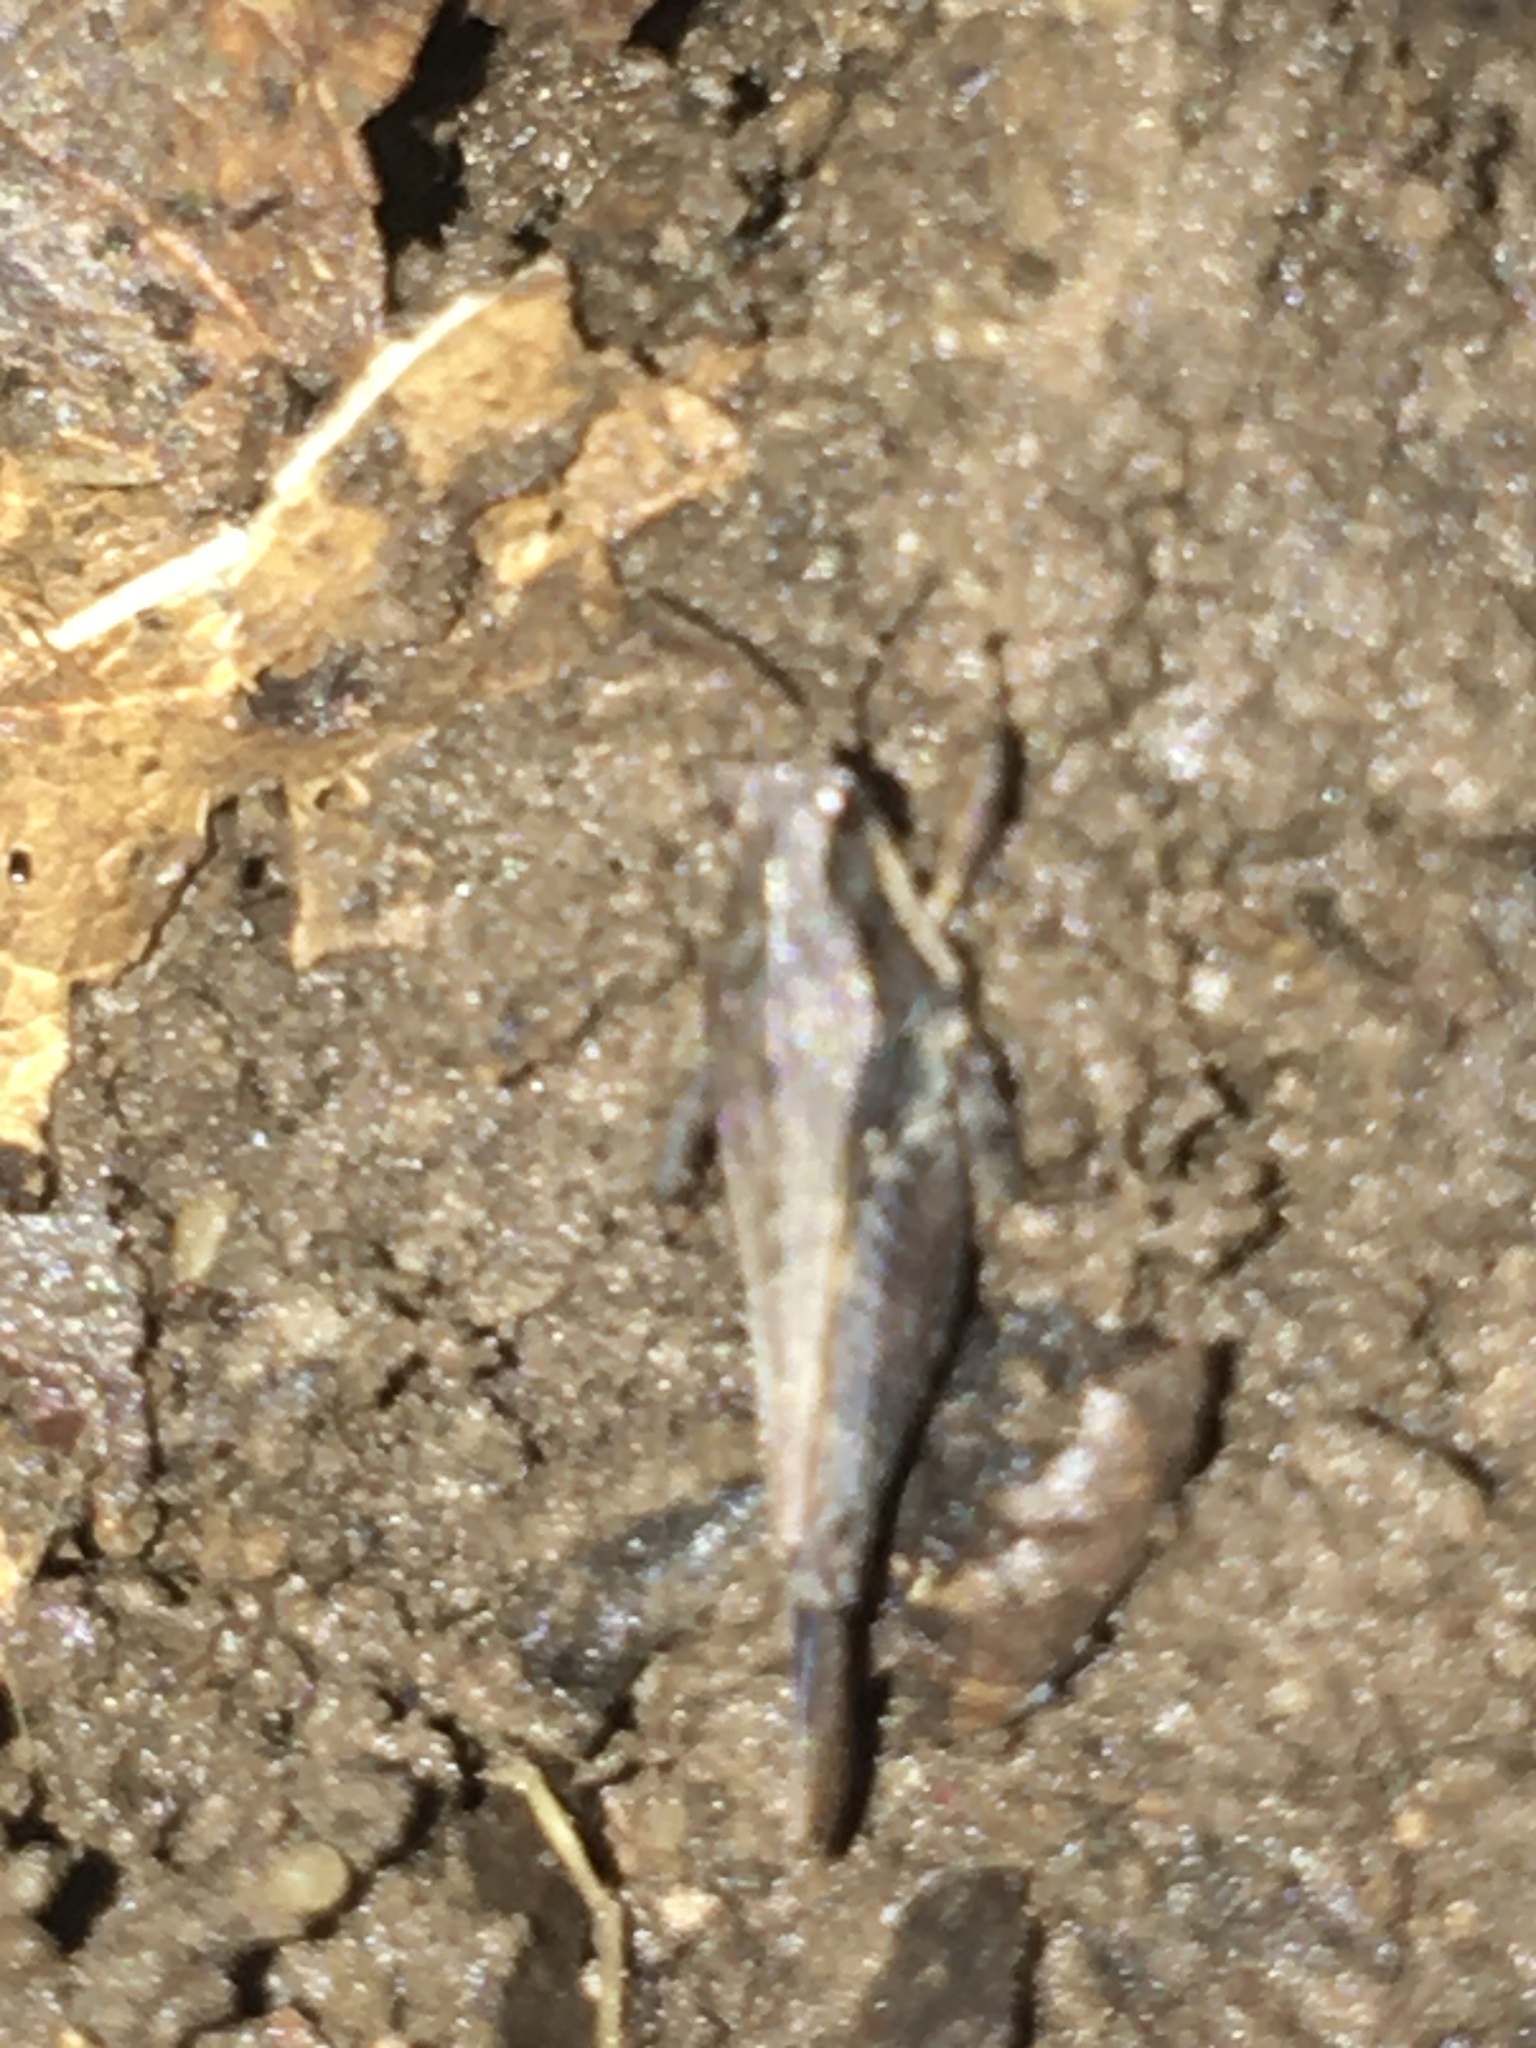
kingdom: Animalia
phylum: Arthropoda
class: Insecta
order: Orthoptera
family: Tetrigidae
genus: Tettigidea
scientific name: Tettigidea laterale
